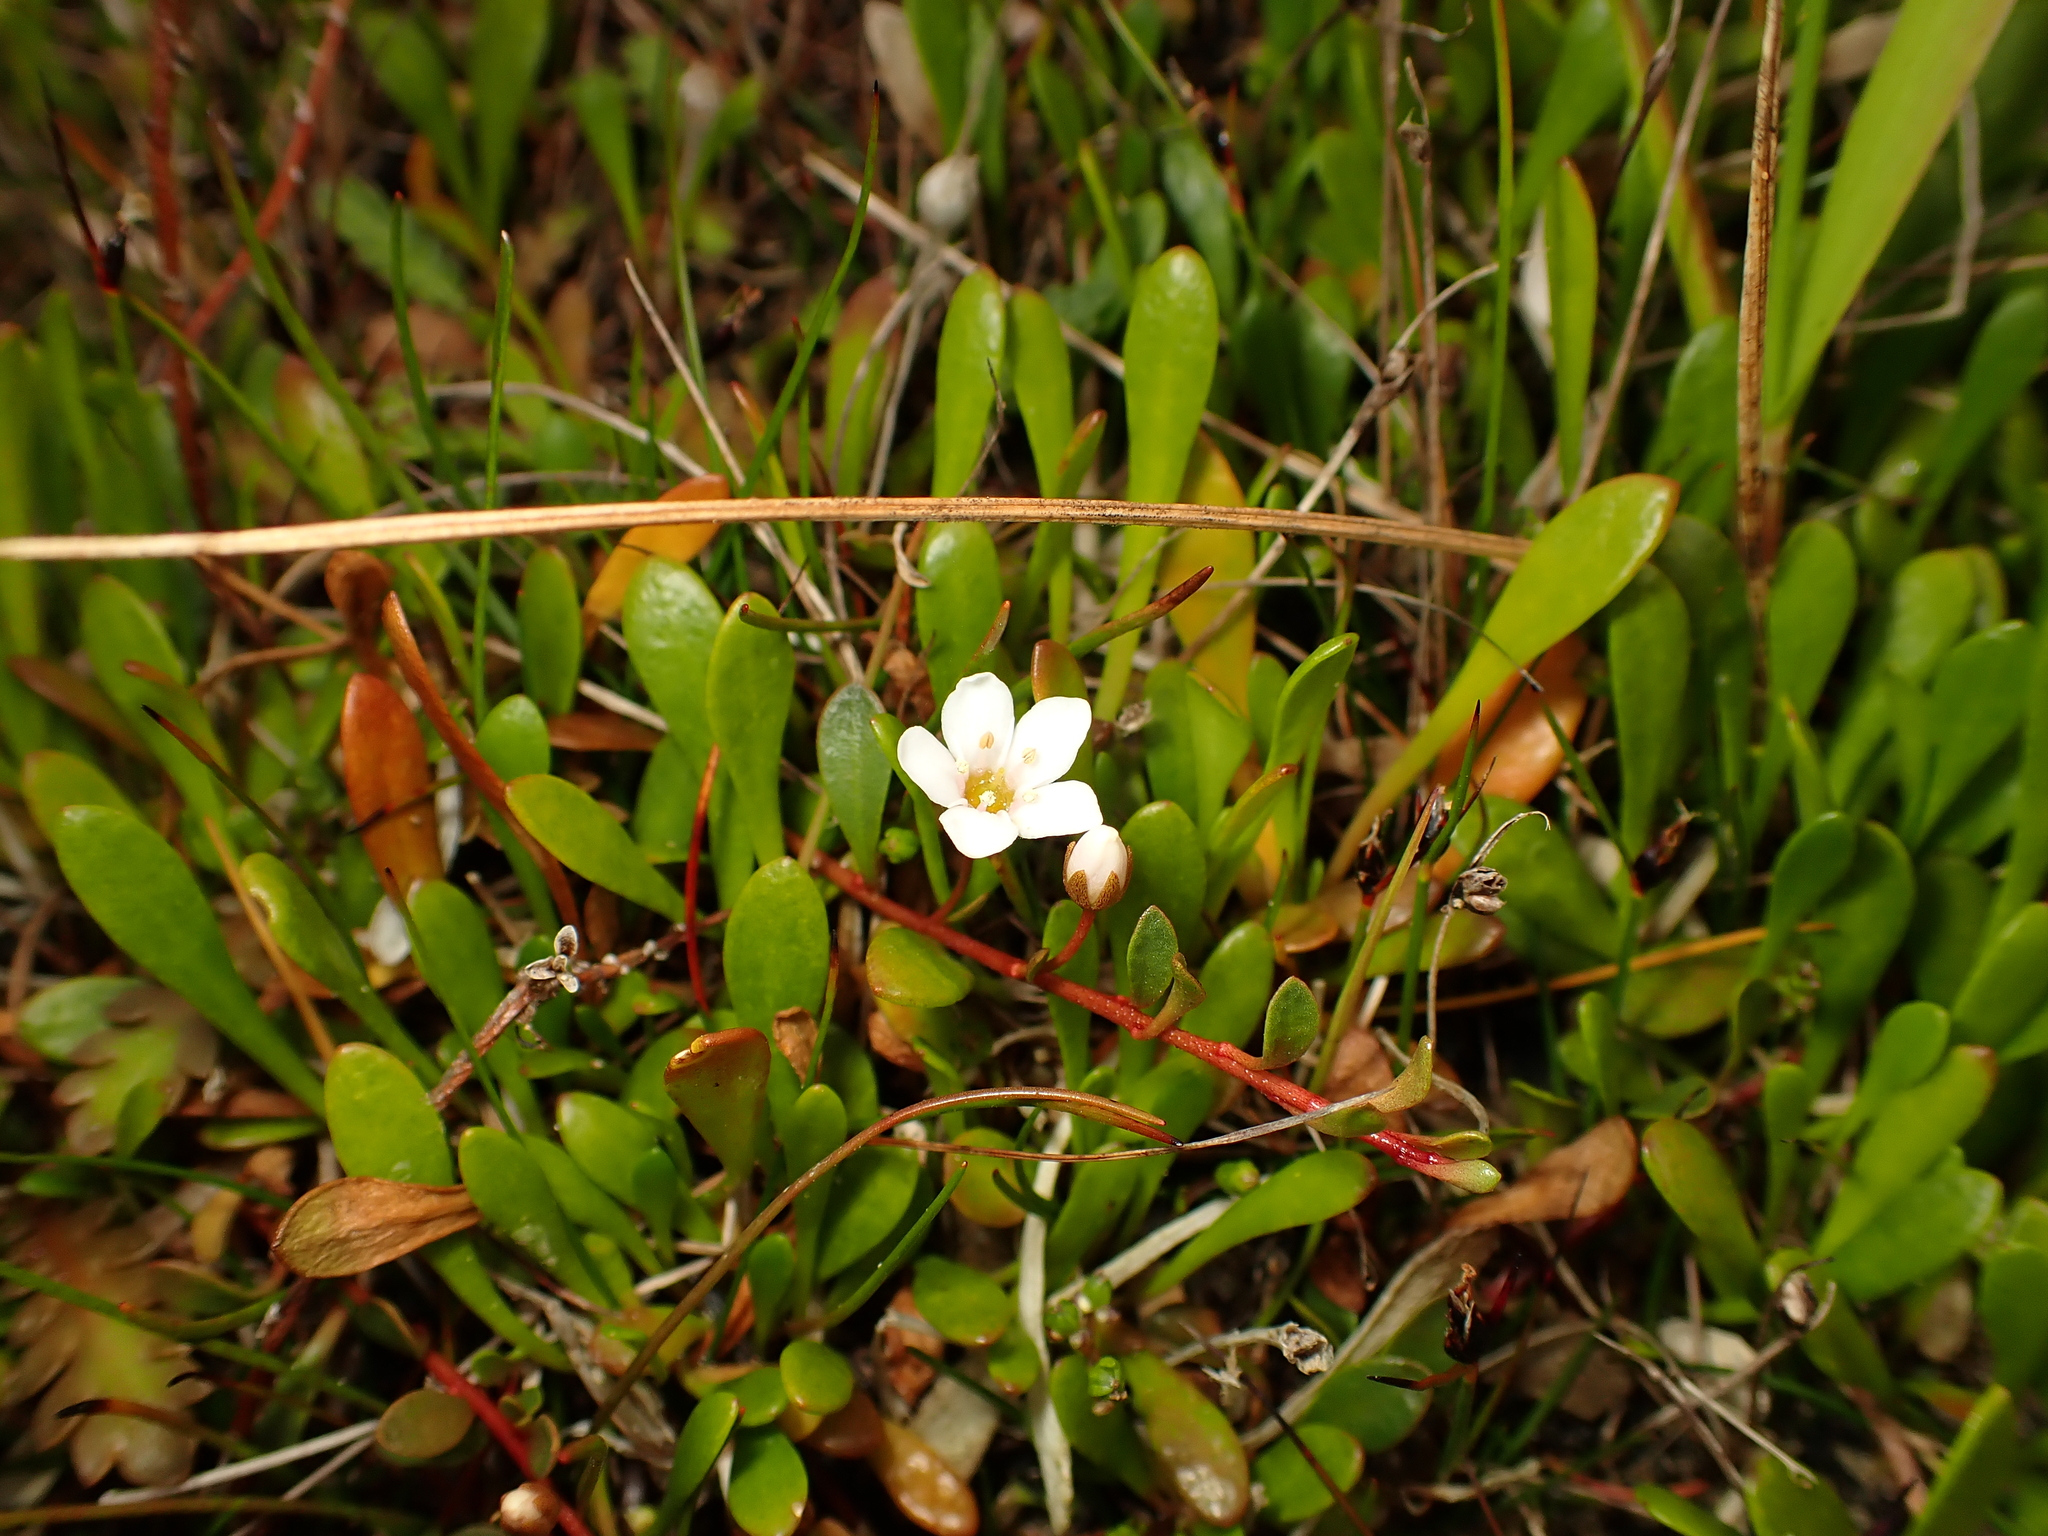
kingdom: Plantae
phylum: Tracheophyta
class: Magnoliopsida
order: Asterales
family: Goodeniaceae
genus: Goodenia
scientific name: Goodenia radicans
